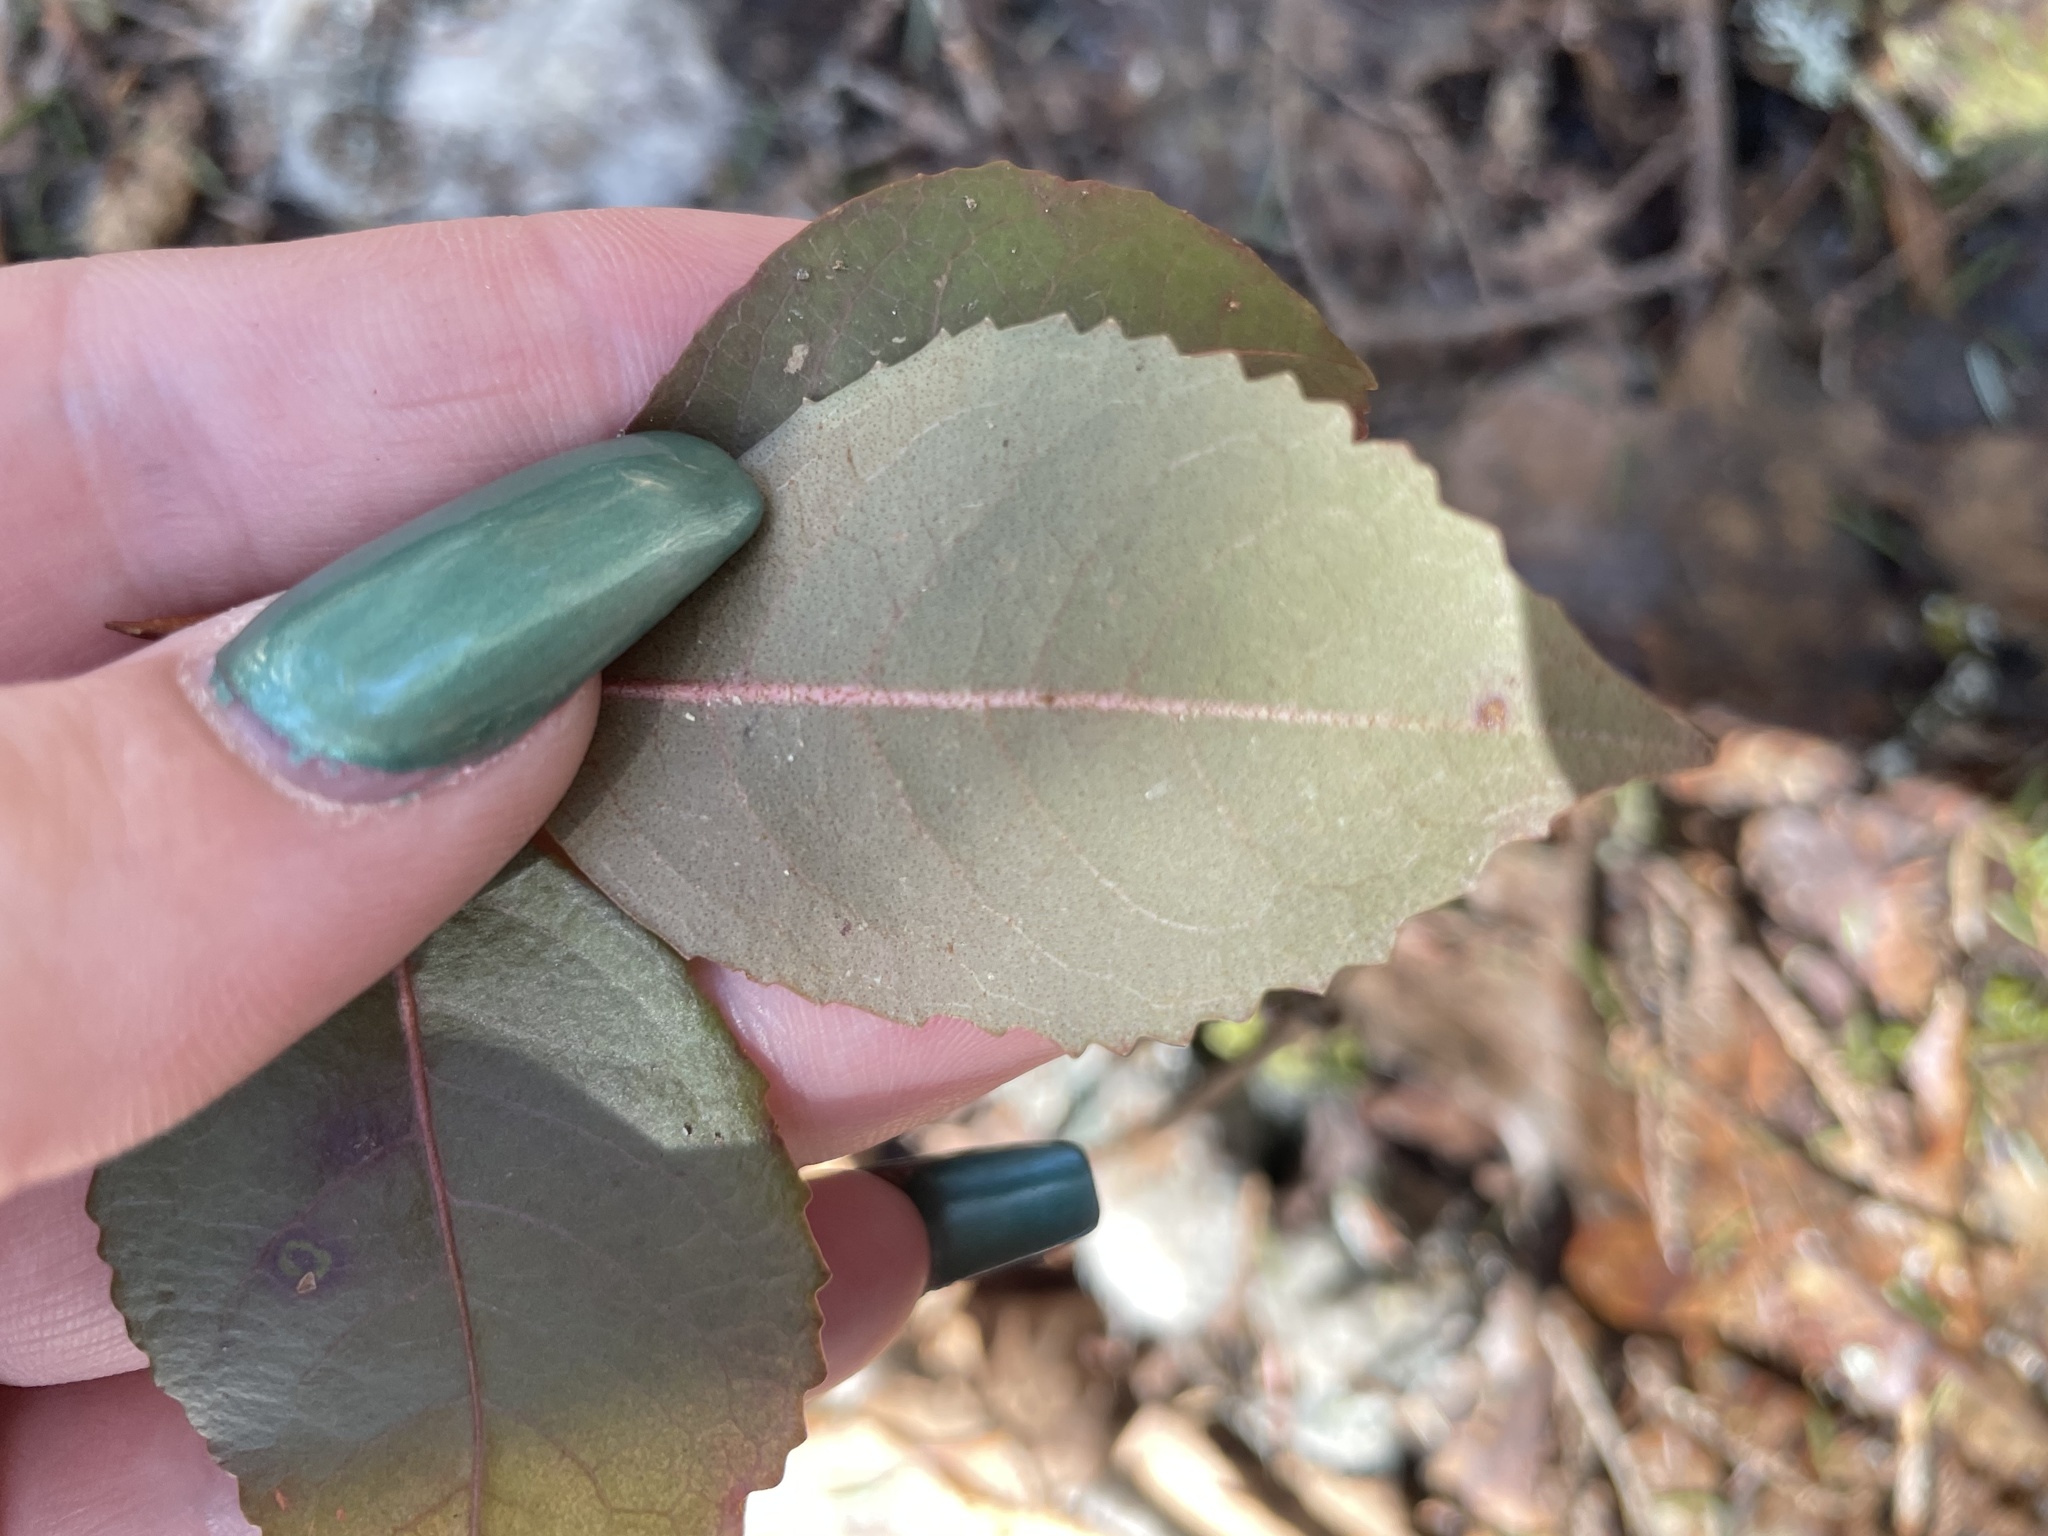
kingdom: Plantae
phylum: Tracheophyta
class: Magnoliopsida
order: Dipsacales
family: Viburnaceae
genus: Viburnum
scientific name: Viburnum cassinoides
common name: Swamp haw
